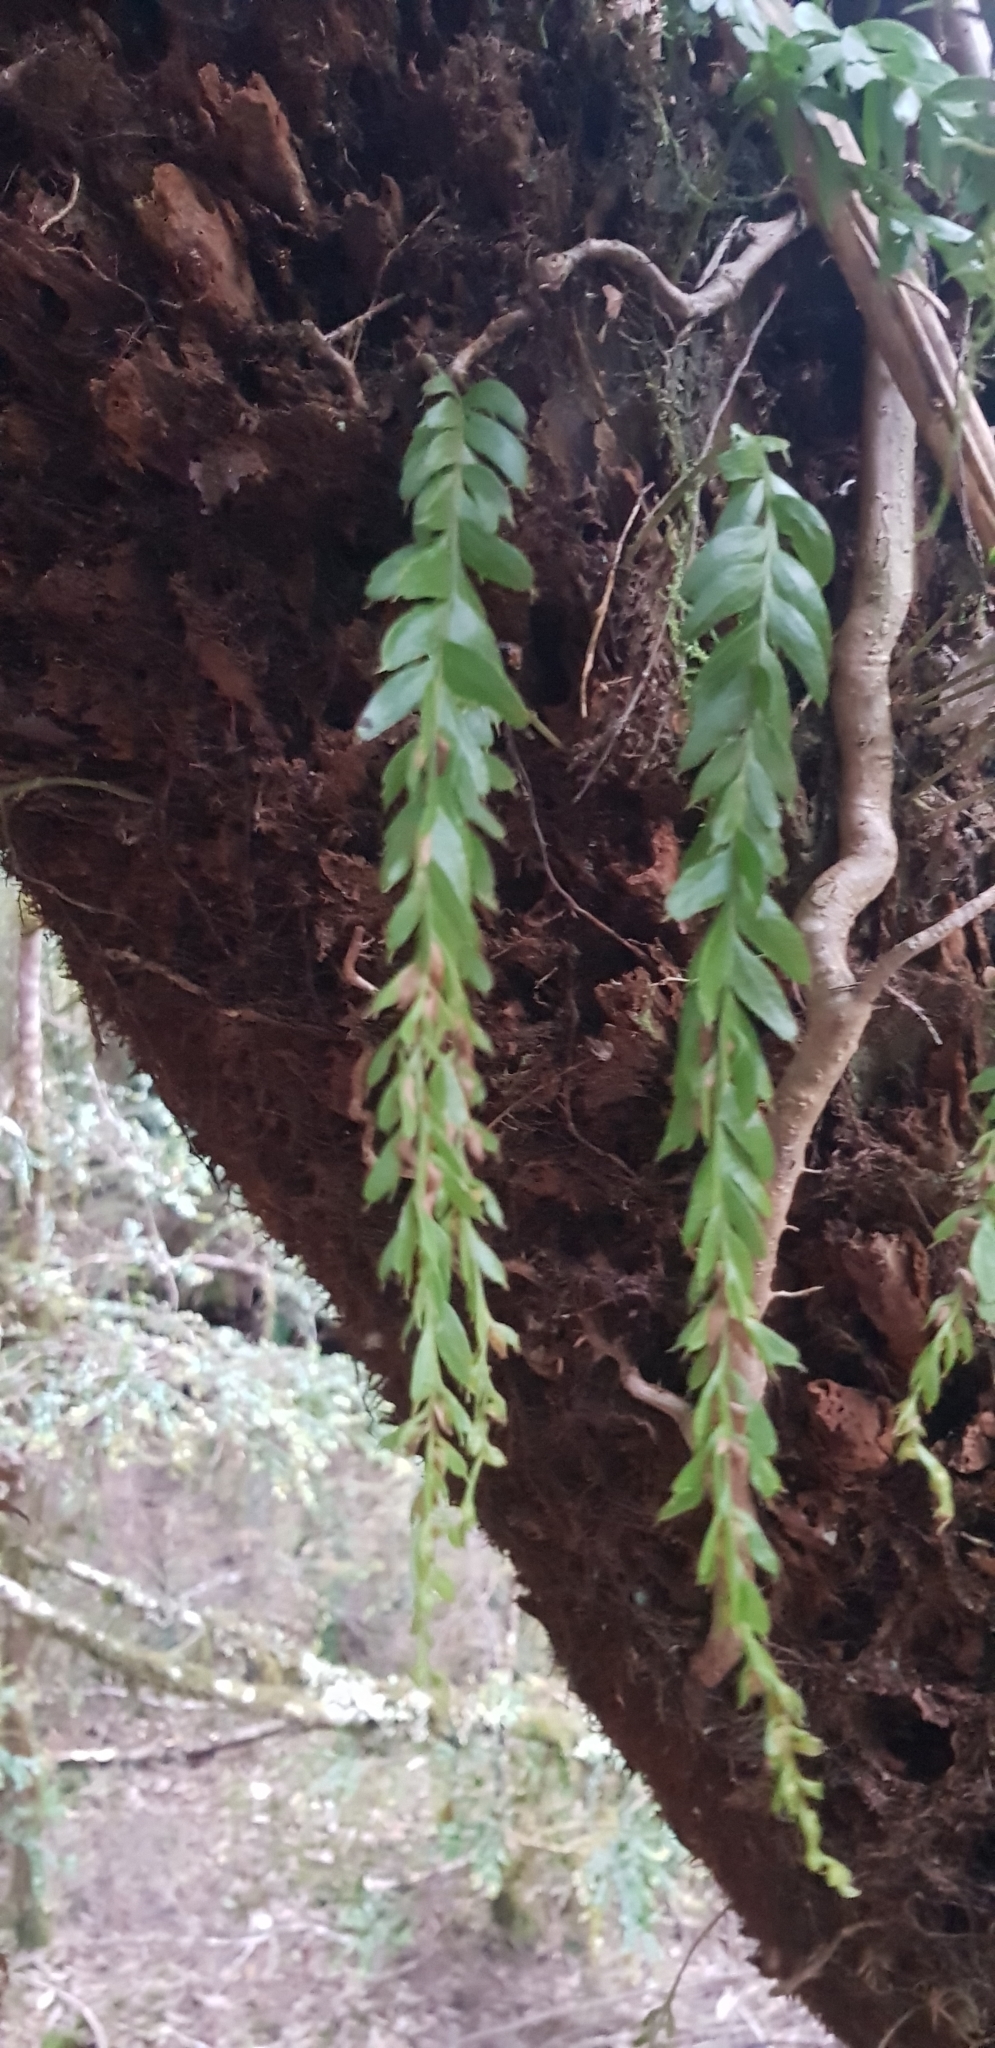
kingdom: Plantae
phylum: Tracheophyta
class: Polypodiopsida
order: Psilotales
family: Psilotaceae
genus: Tmesipteris
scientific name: Tmesipteris obliqua
